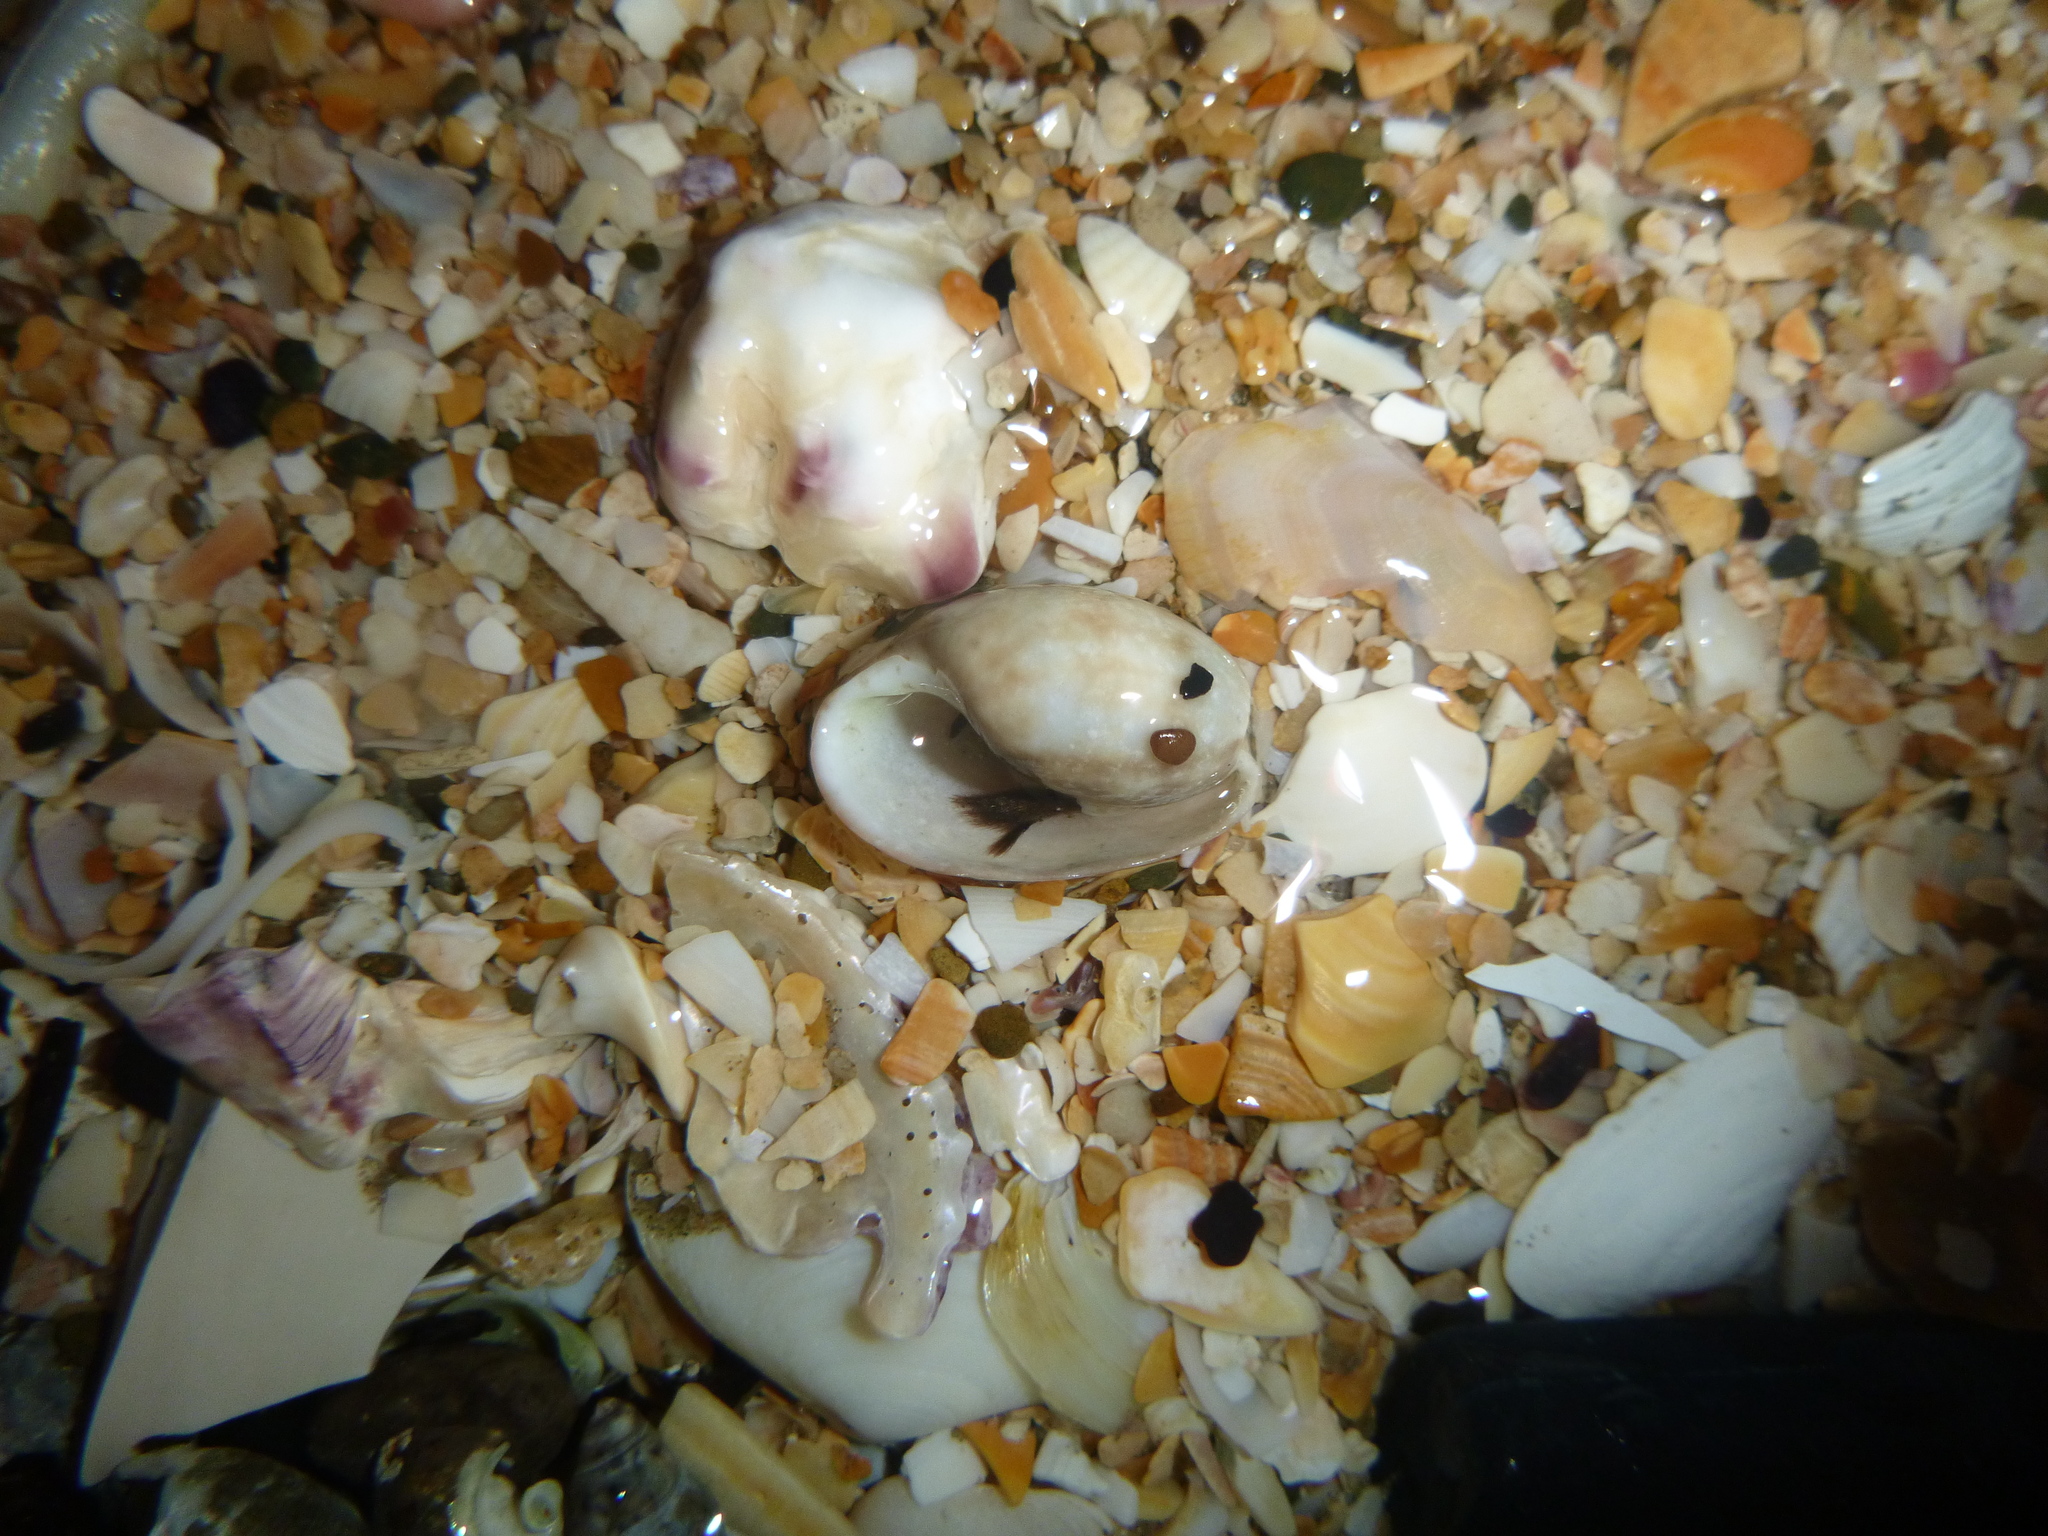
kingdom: Animalia
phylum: Mollusca
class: Gastropoda
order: Cephalaspidea
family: Bullidae
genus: Bulla
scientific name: Bulla quoyii
